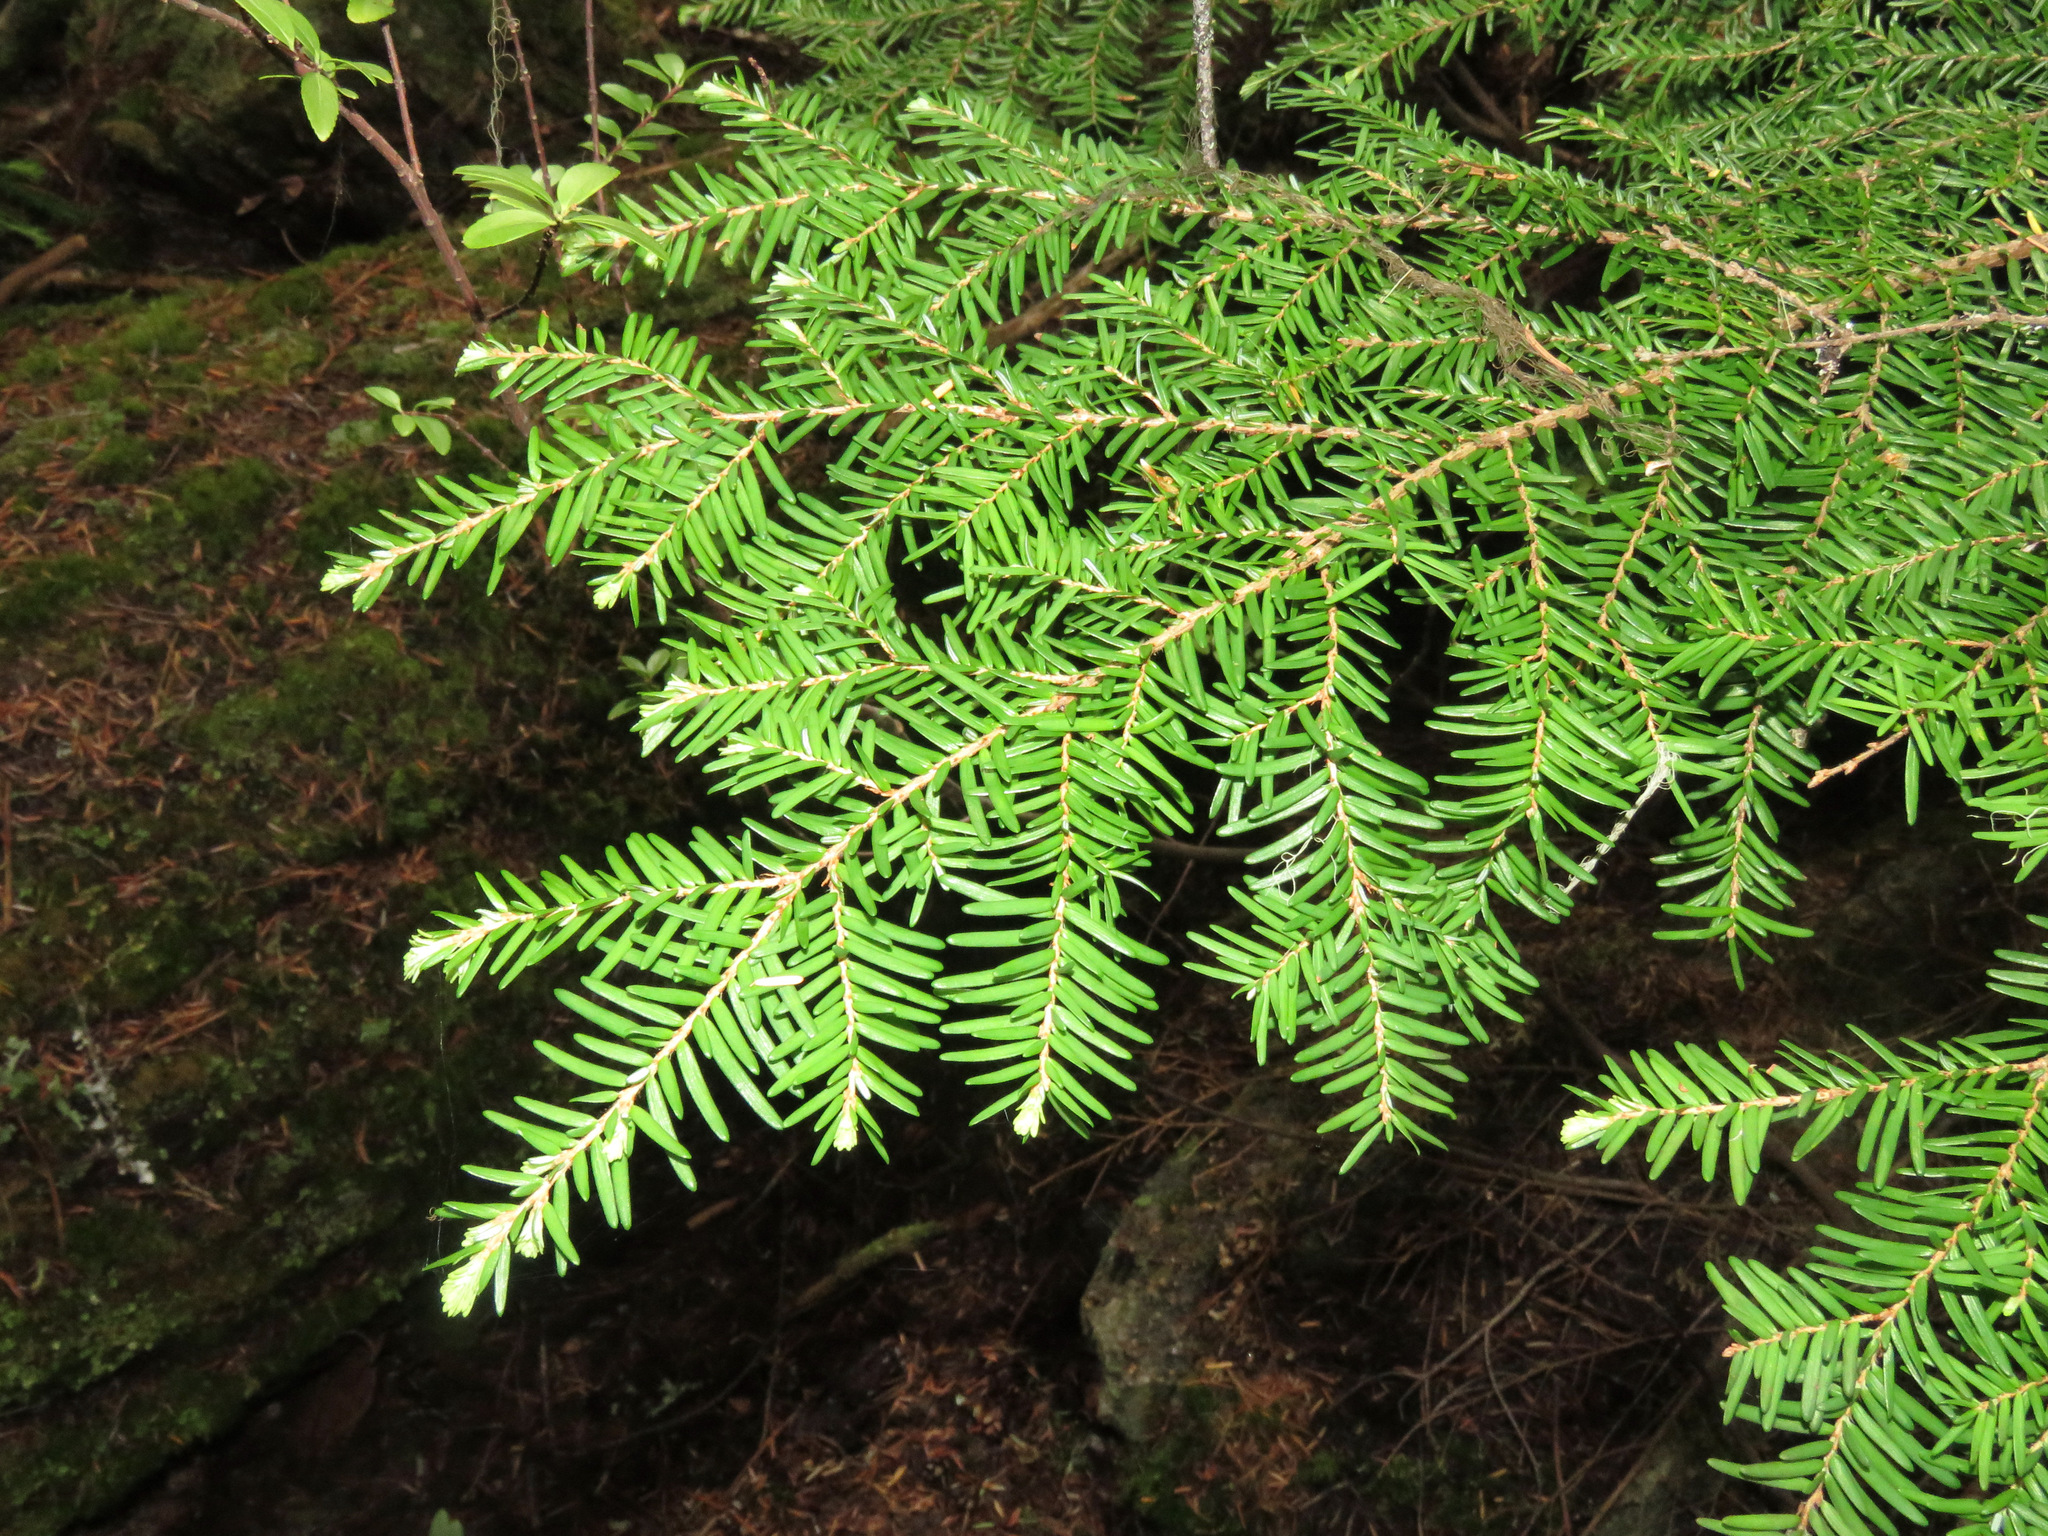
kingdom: Plantae
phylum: Tracheophyta
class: Pinopsida
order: Pinales
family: Pinaceae
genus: Tsuga
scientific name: Tsuga heterophylla
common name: Western hemlock
